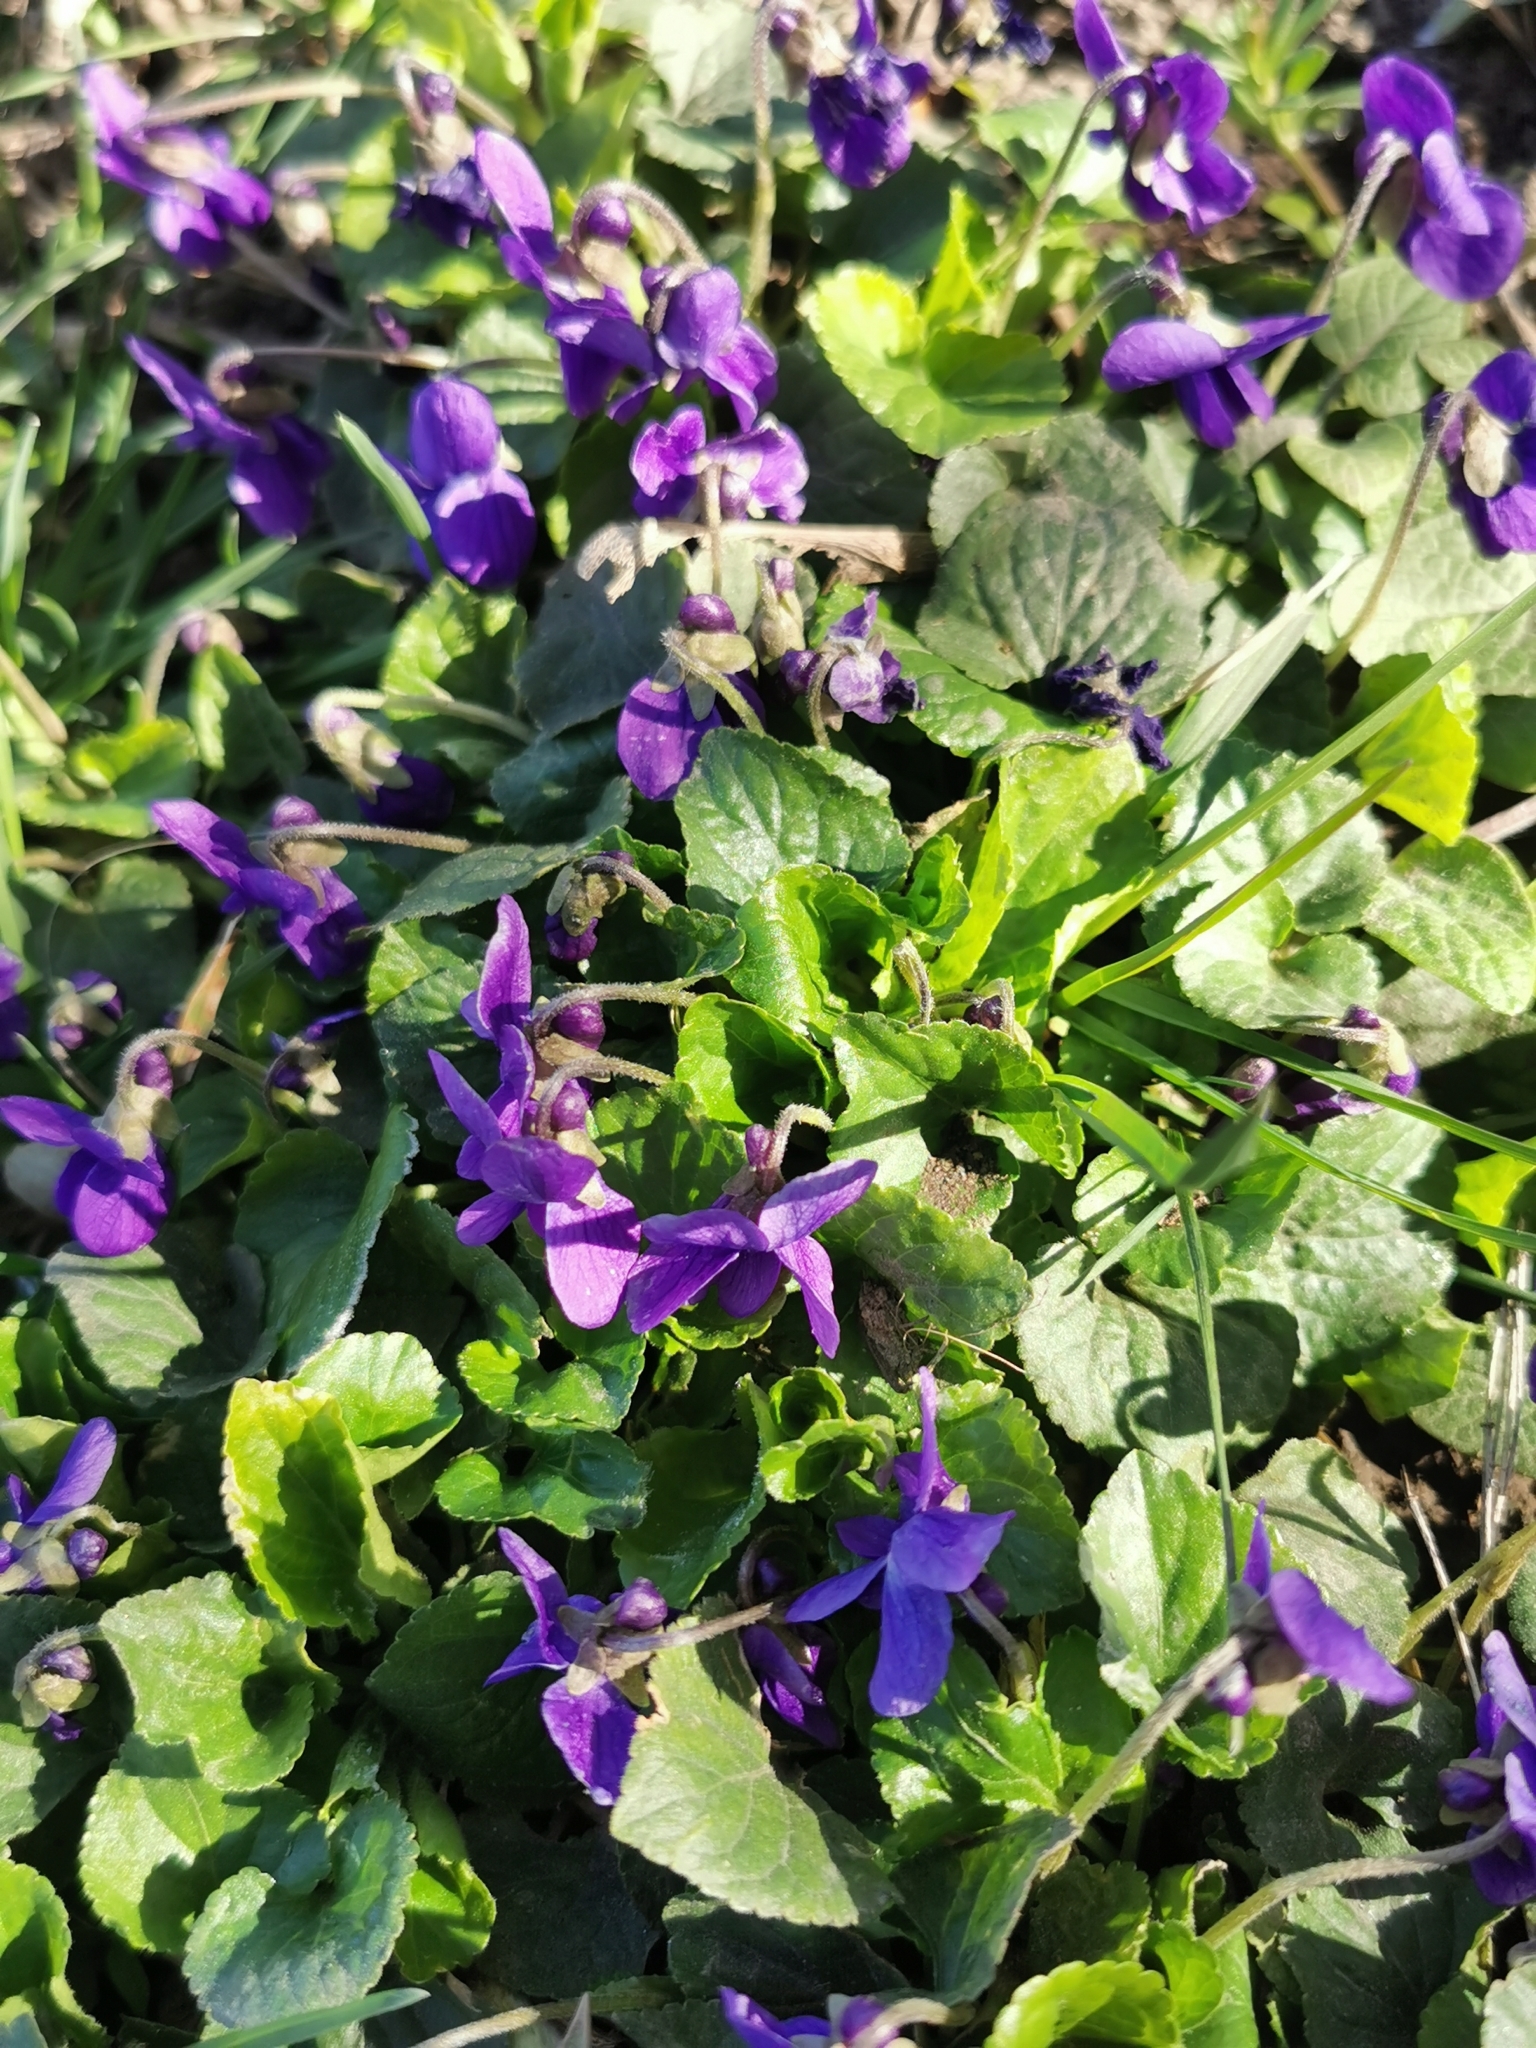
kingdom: Plantae
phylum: Tracheophyta
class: Magnoliopsida
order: Malpighiales
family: Violaceae
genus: Viola
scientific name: Viola adunca
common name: Sand violet
